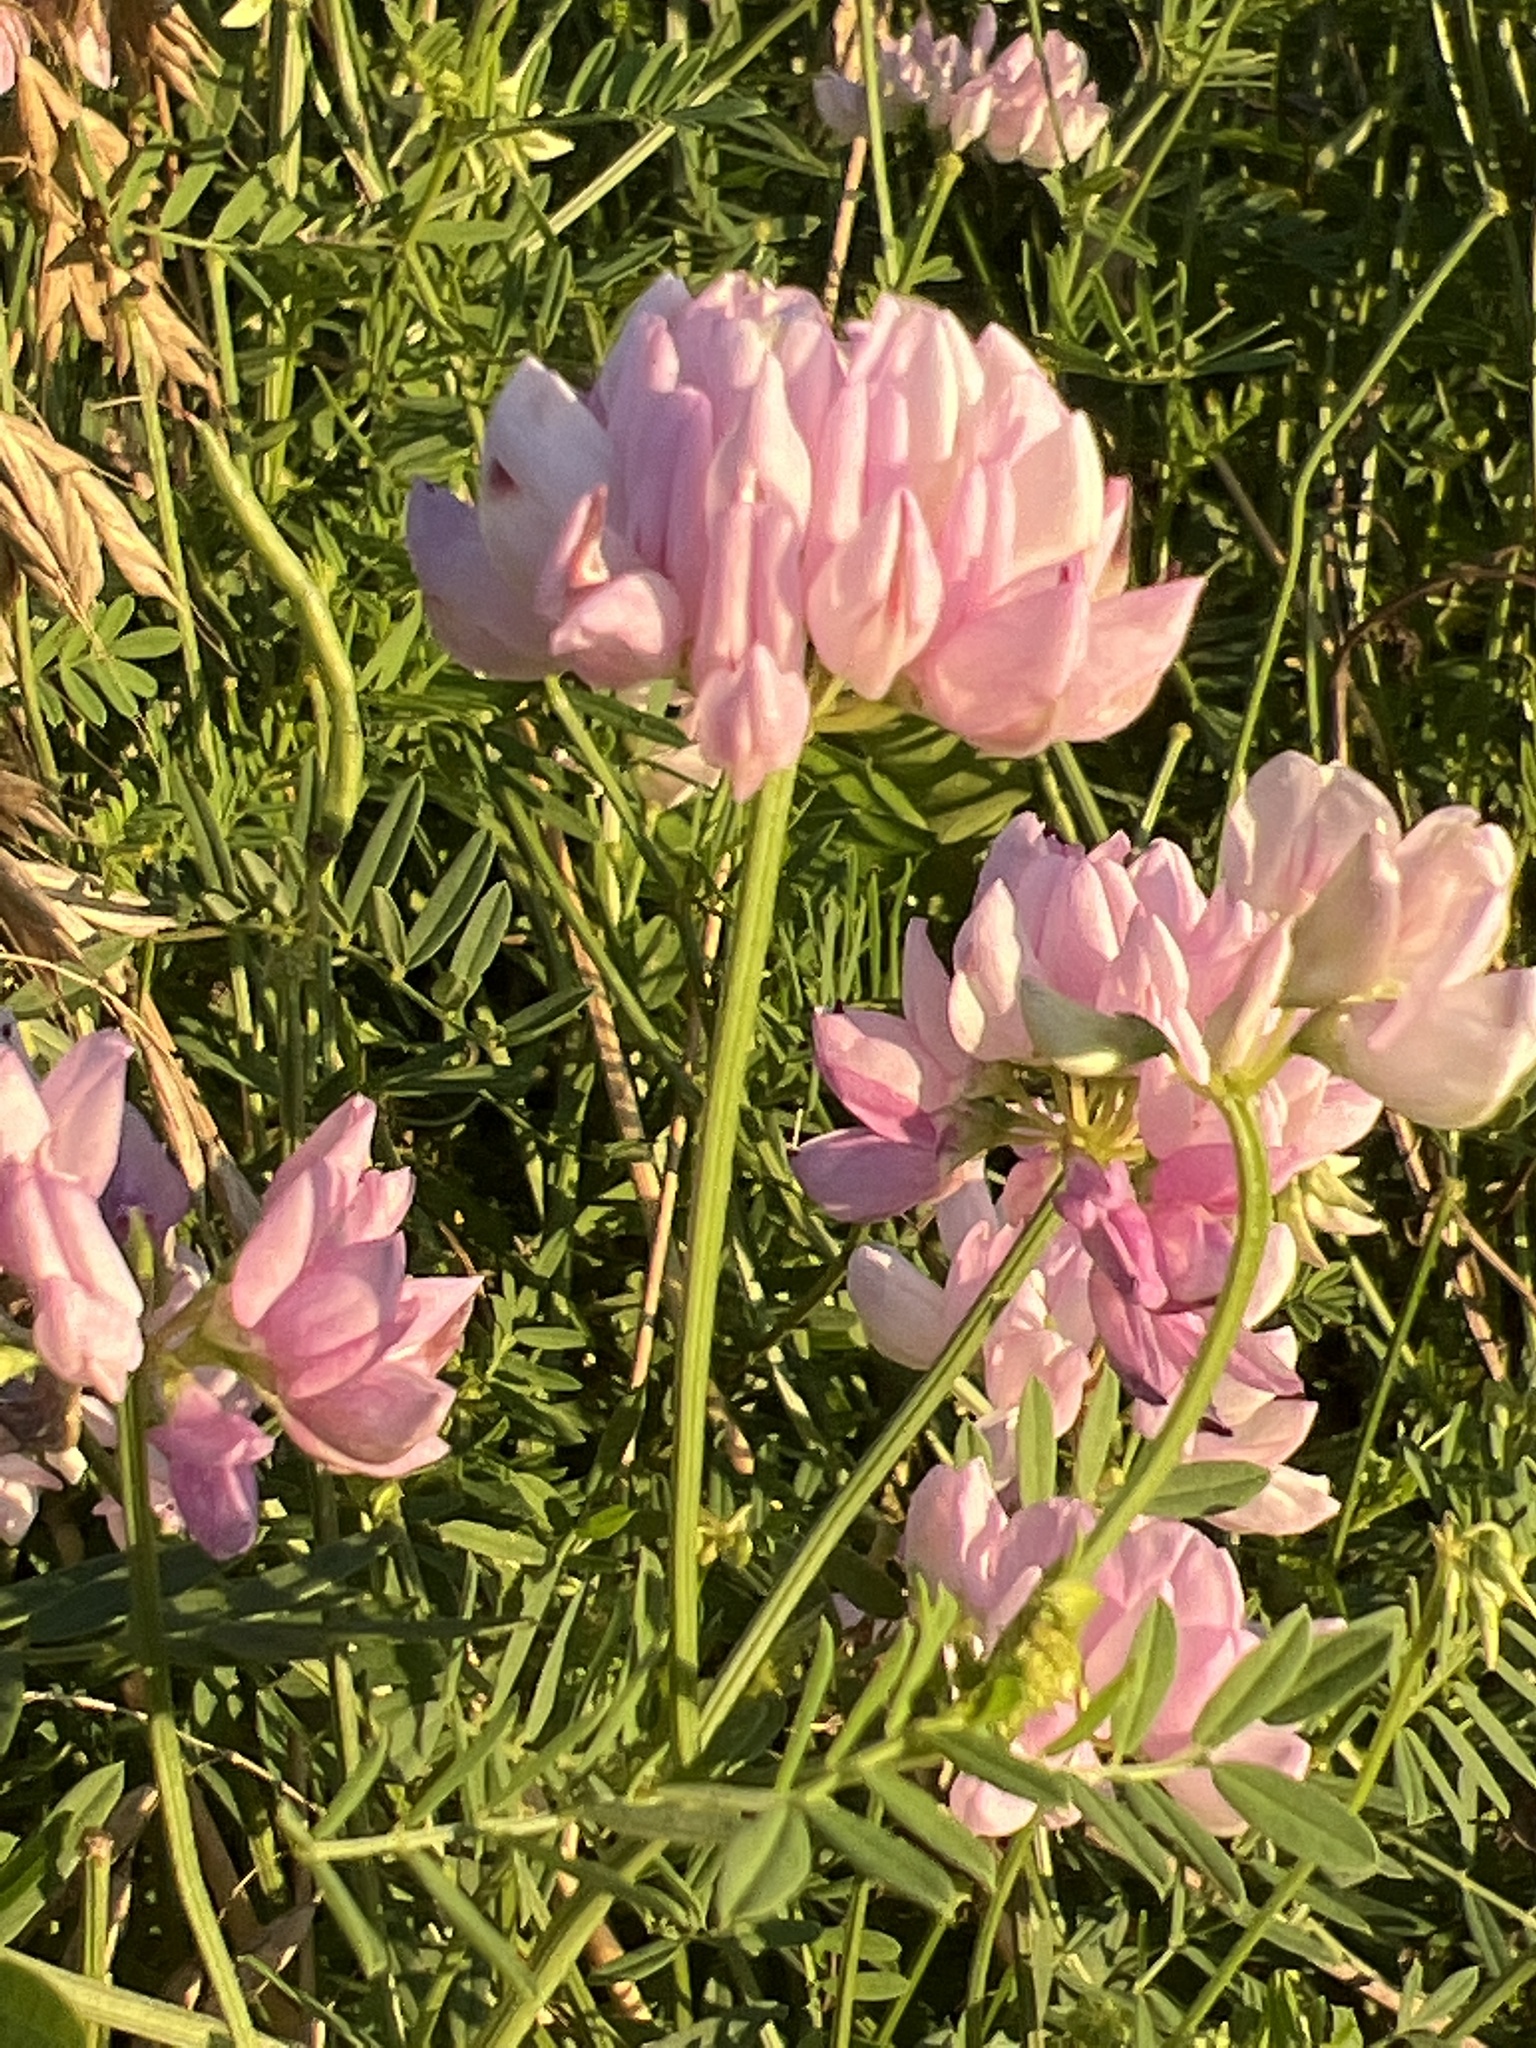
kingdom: Plantae
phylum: Tracheophyta
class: Magnoliopsida
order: Fabales
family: Fabaceae
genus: Coronilla
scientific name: Coronilla varia
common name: Crownvetch
